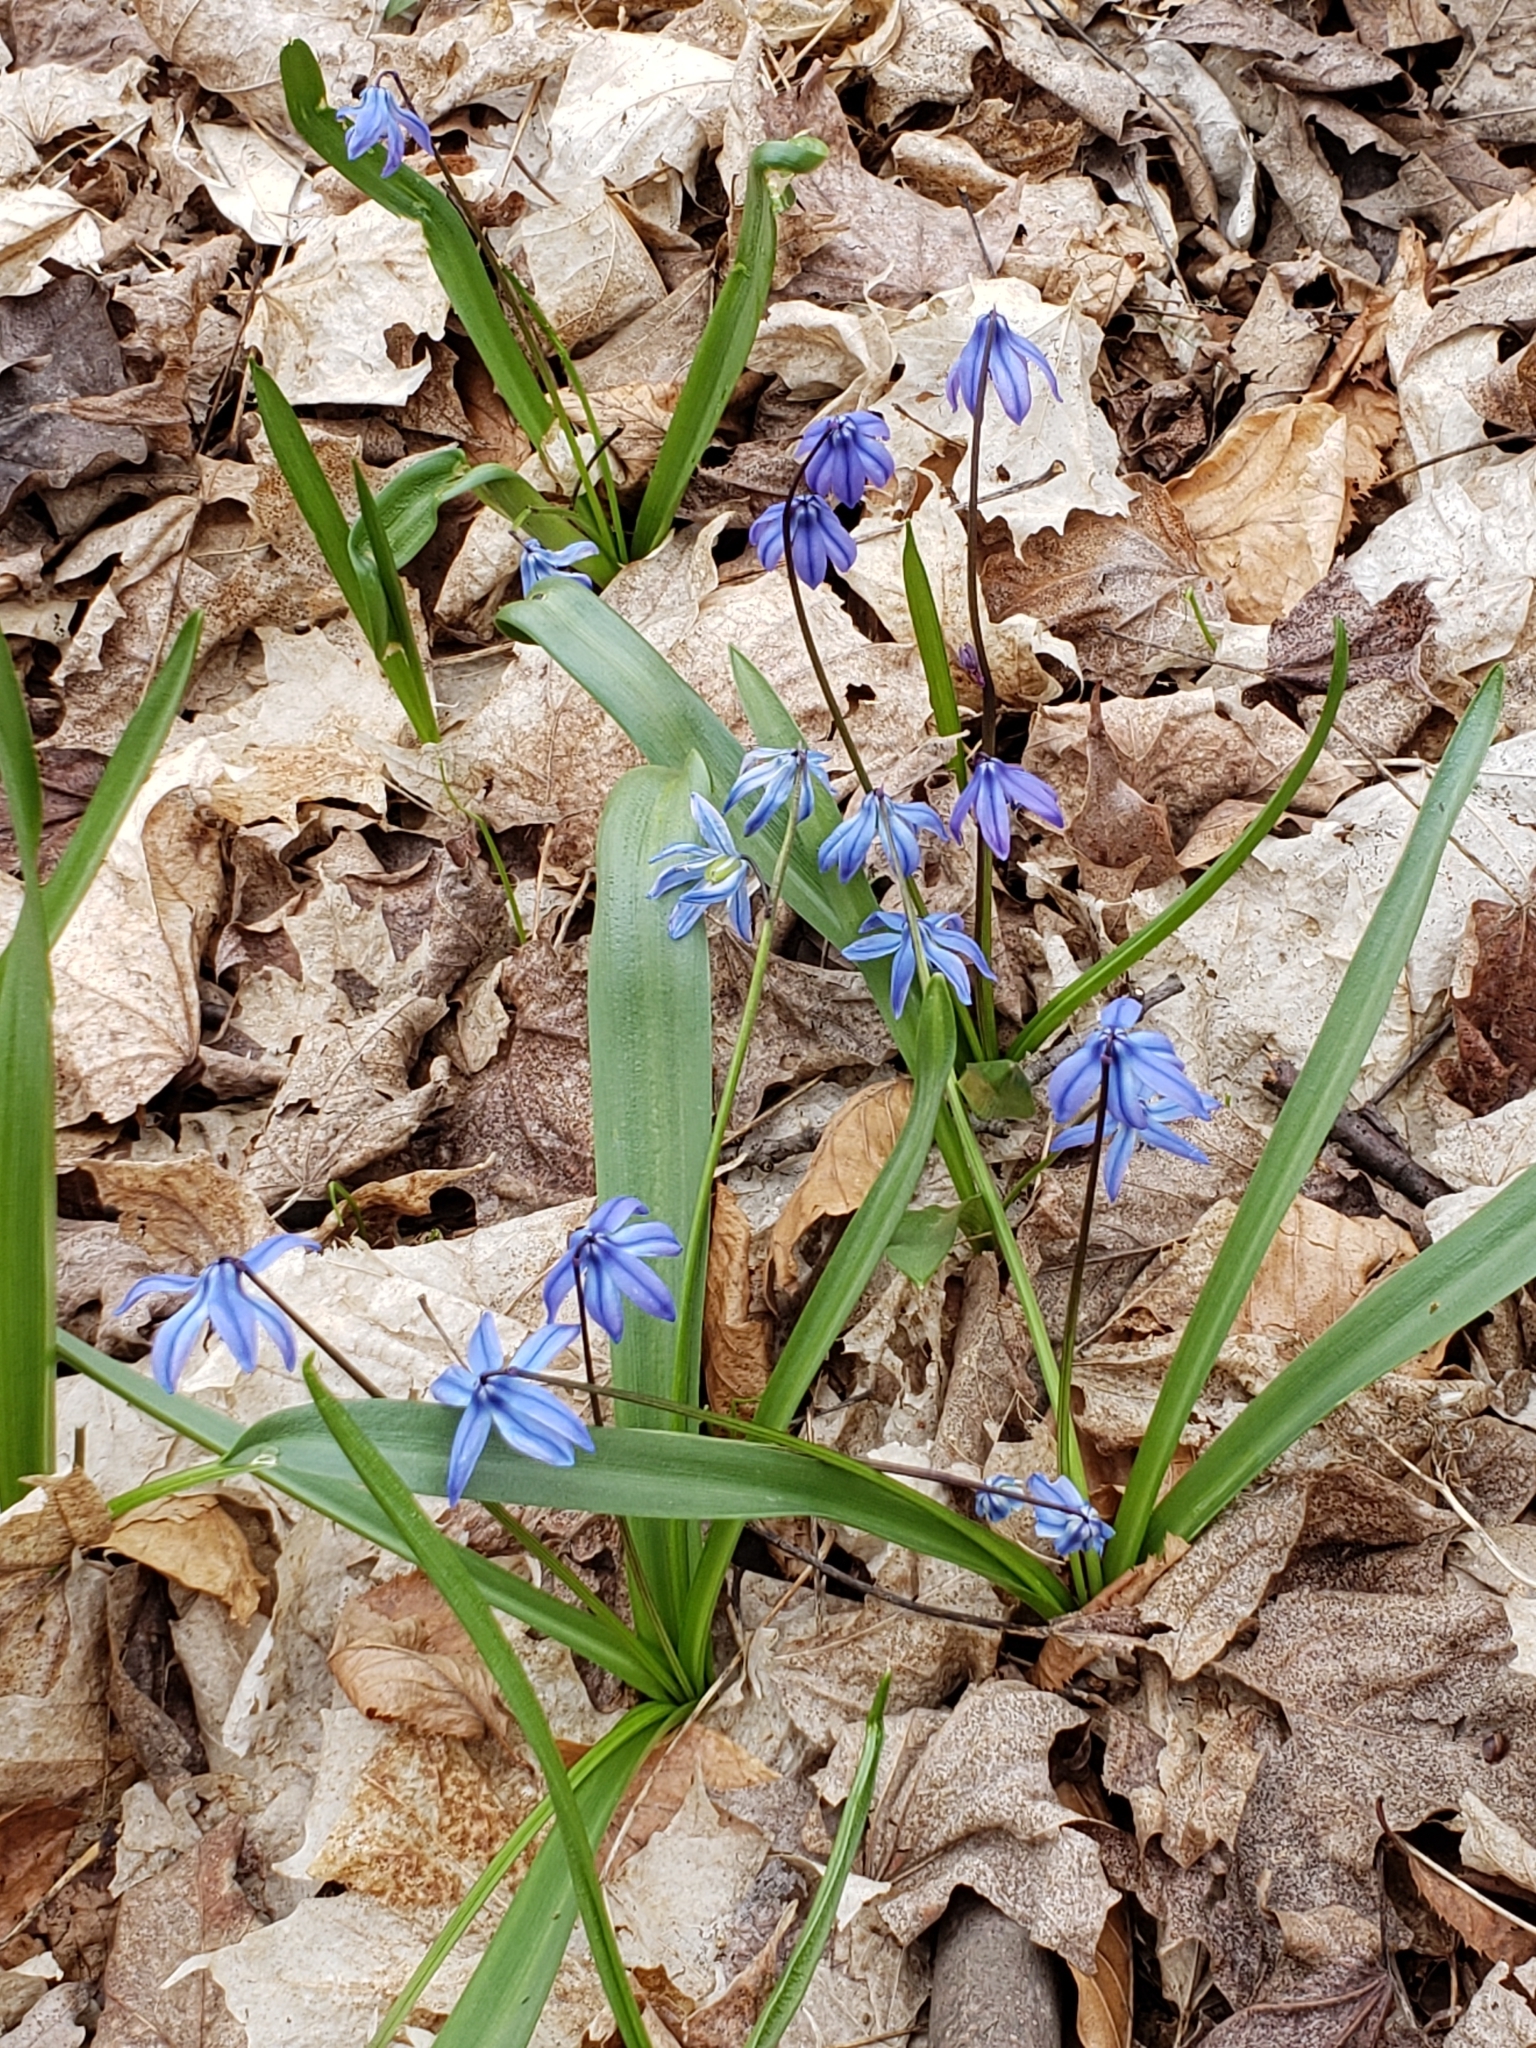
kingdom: Plantae
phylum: Tracheophyta
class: Liliopsida
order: Asparagales
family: Asparagaceae
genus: Scilla
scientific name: Scilla siberica
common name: Siberian squill
